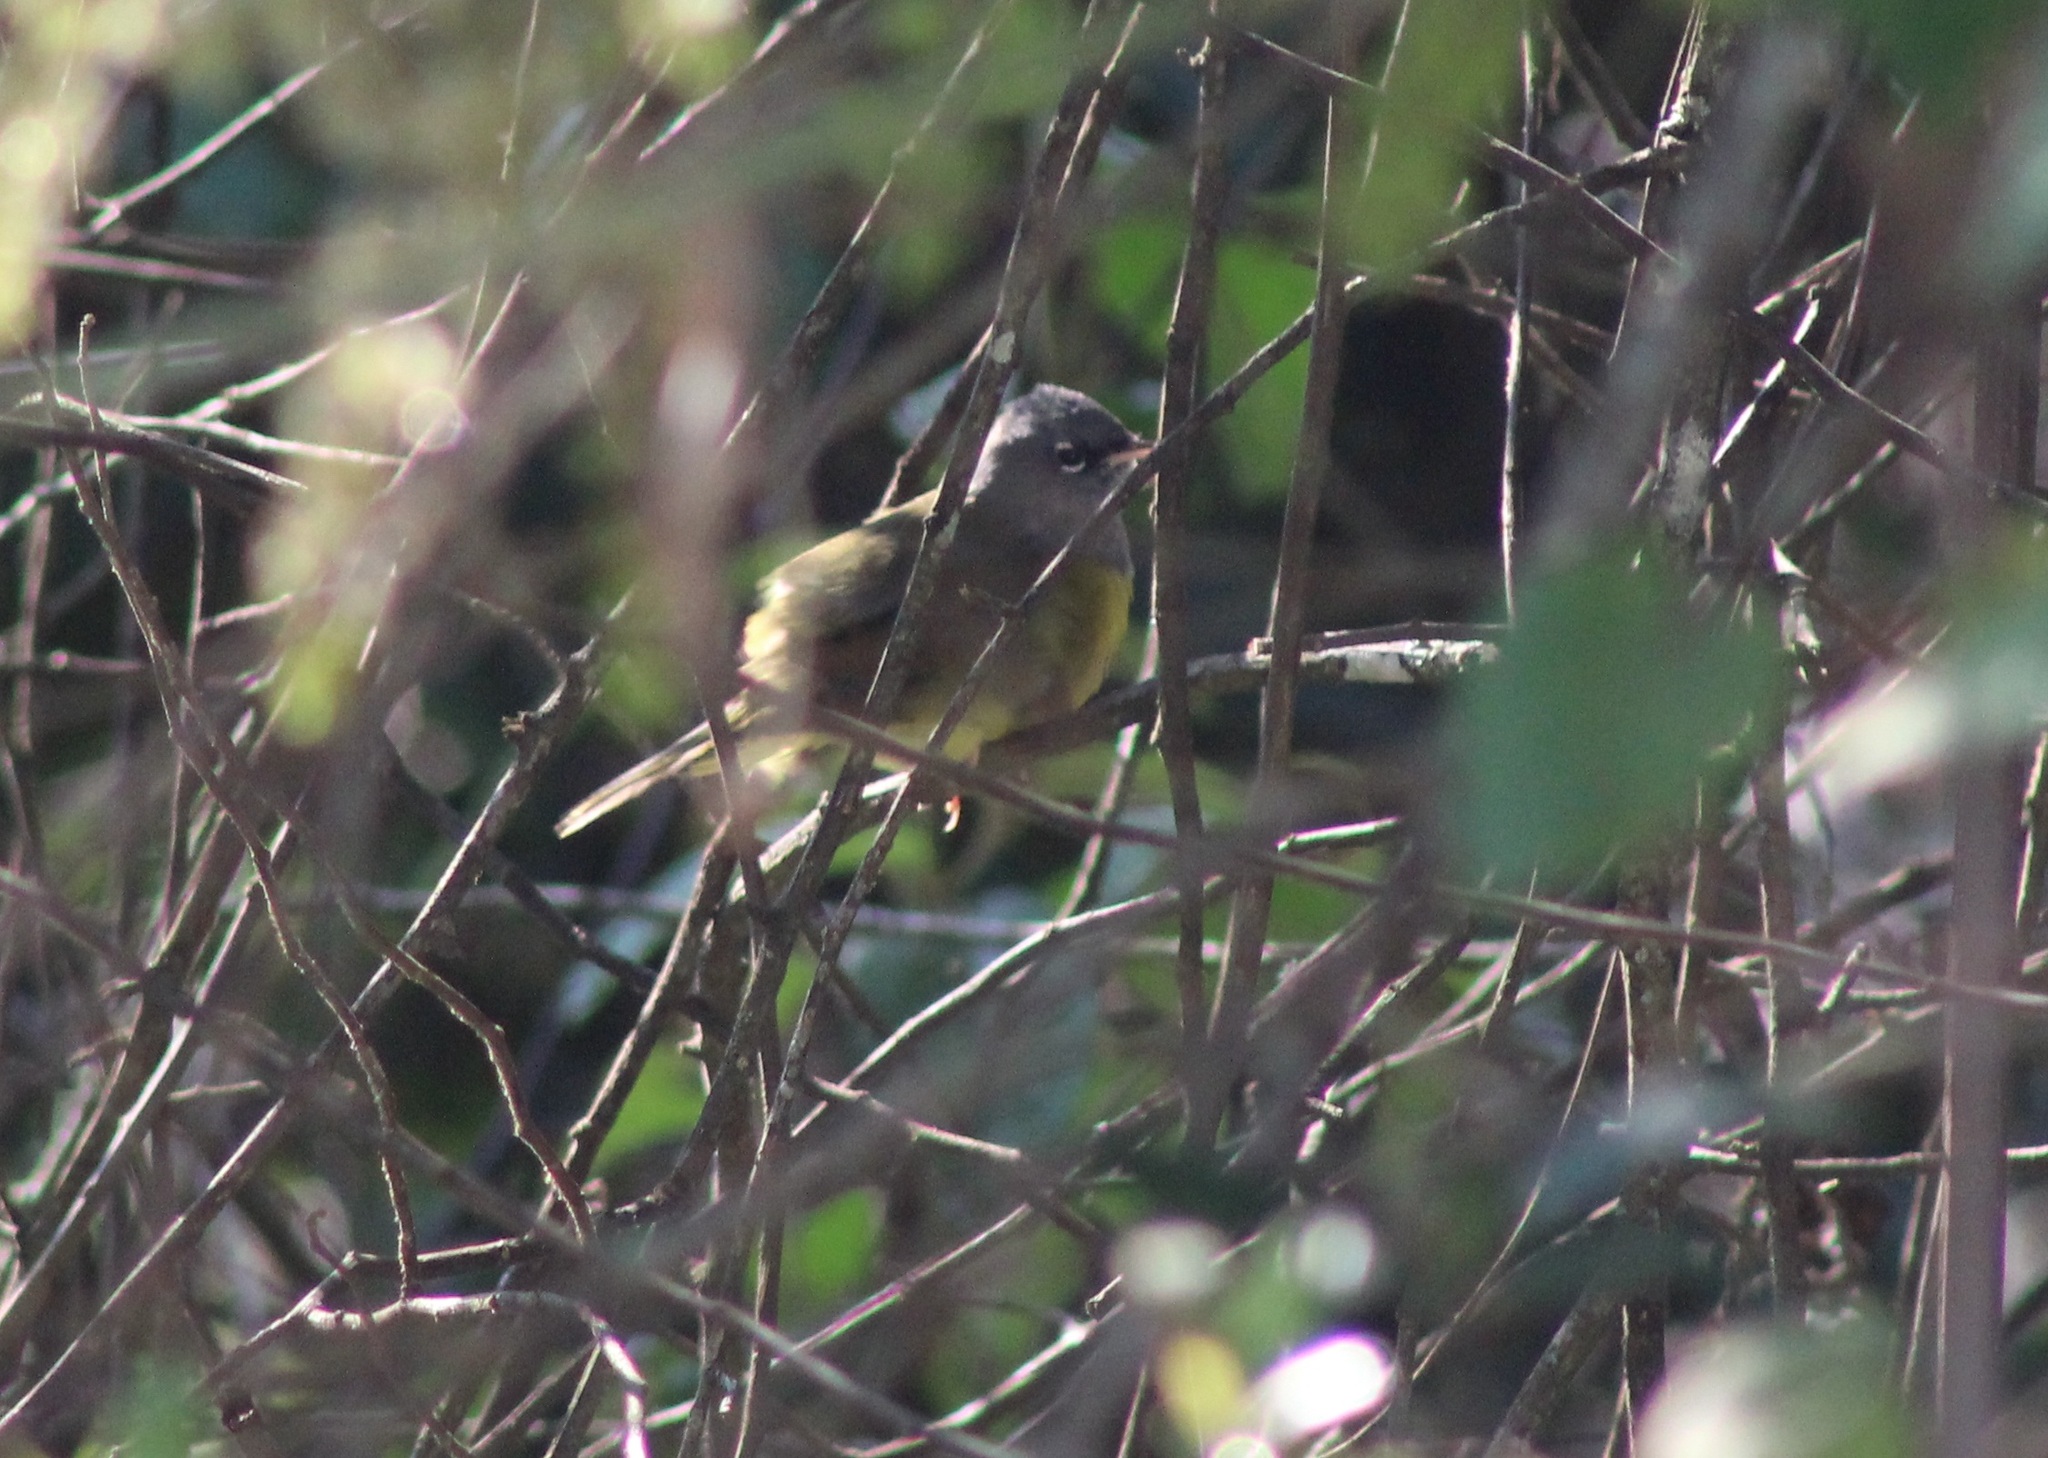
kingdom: Animalia
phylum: Chordata
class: Aves
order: Passeriformes
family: Parulidae
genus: Geothlypis
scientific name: Geothlypis tolmiei
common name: Macgillivray's warbler
